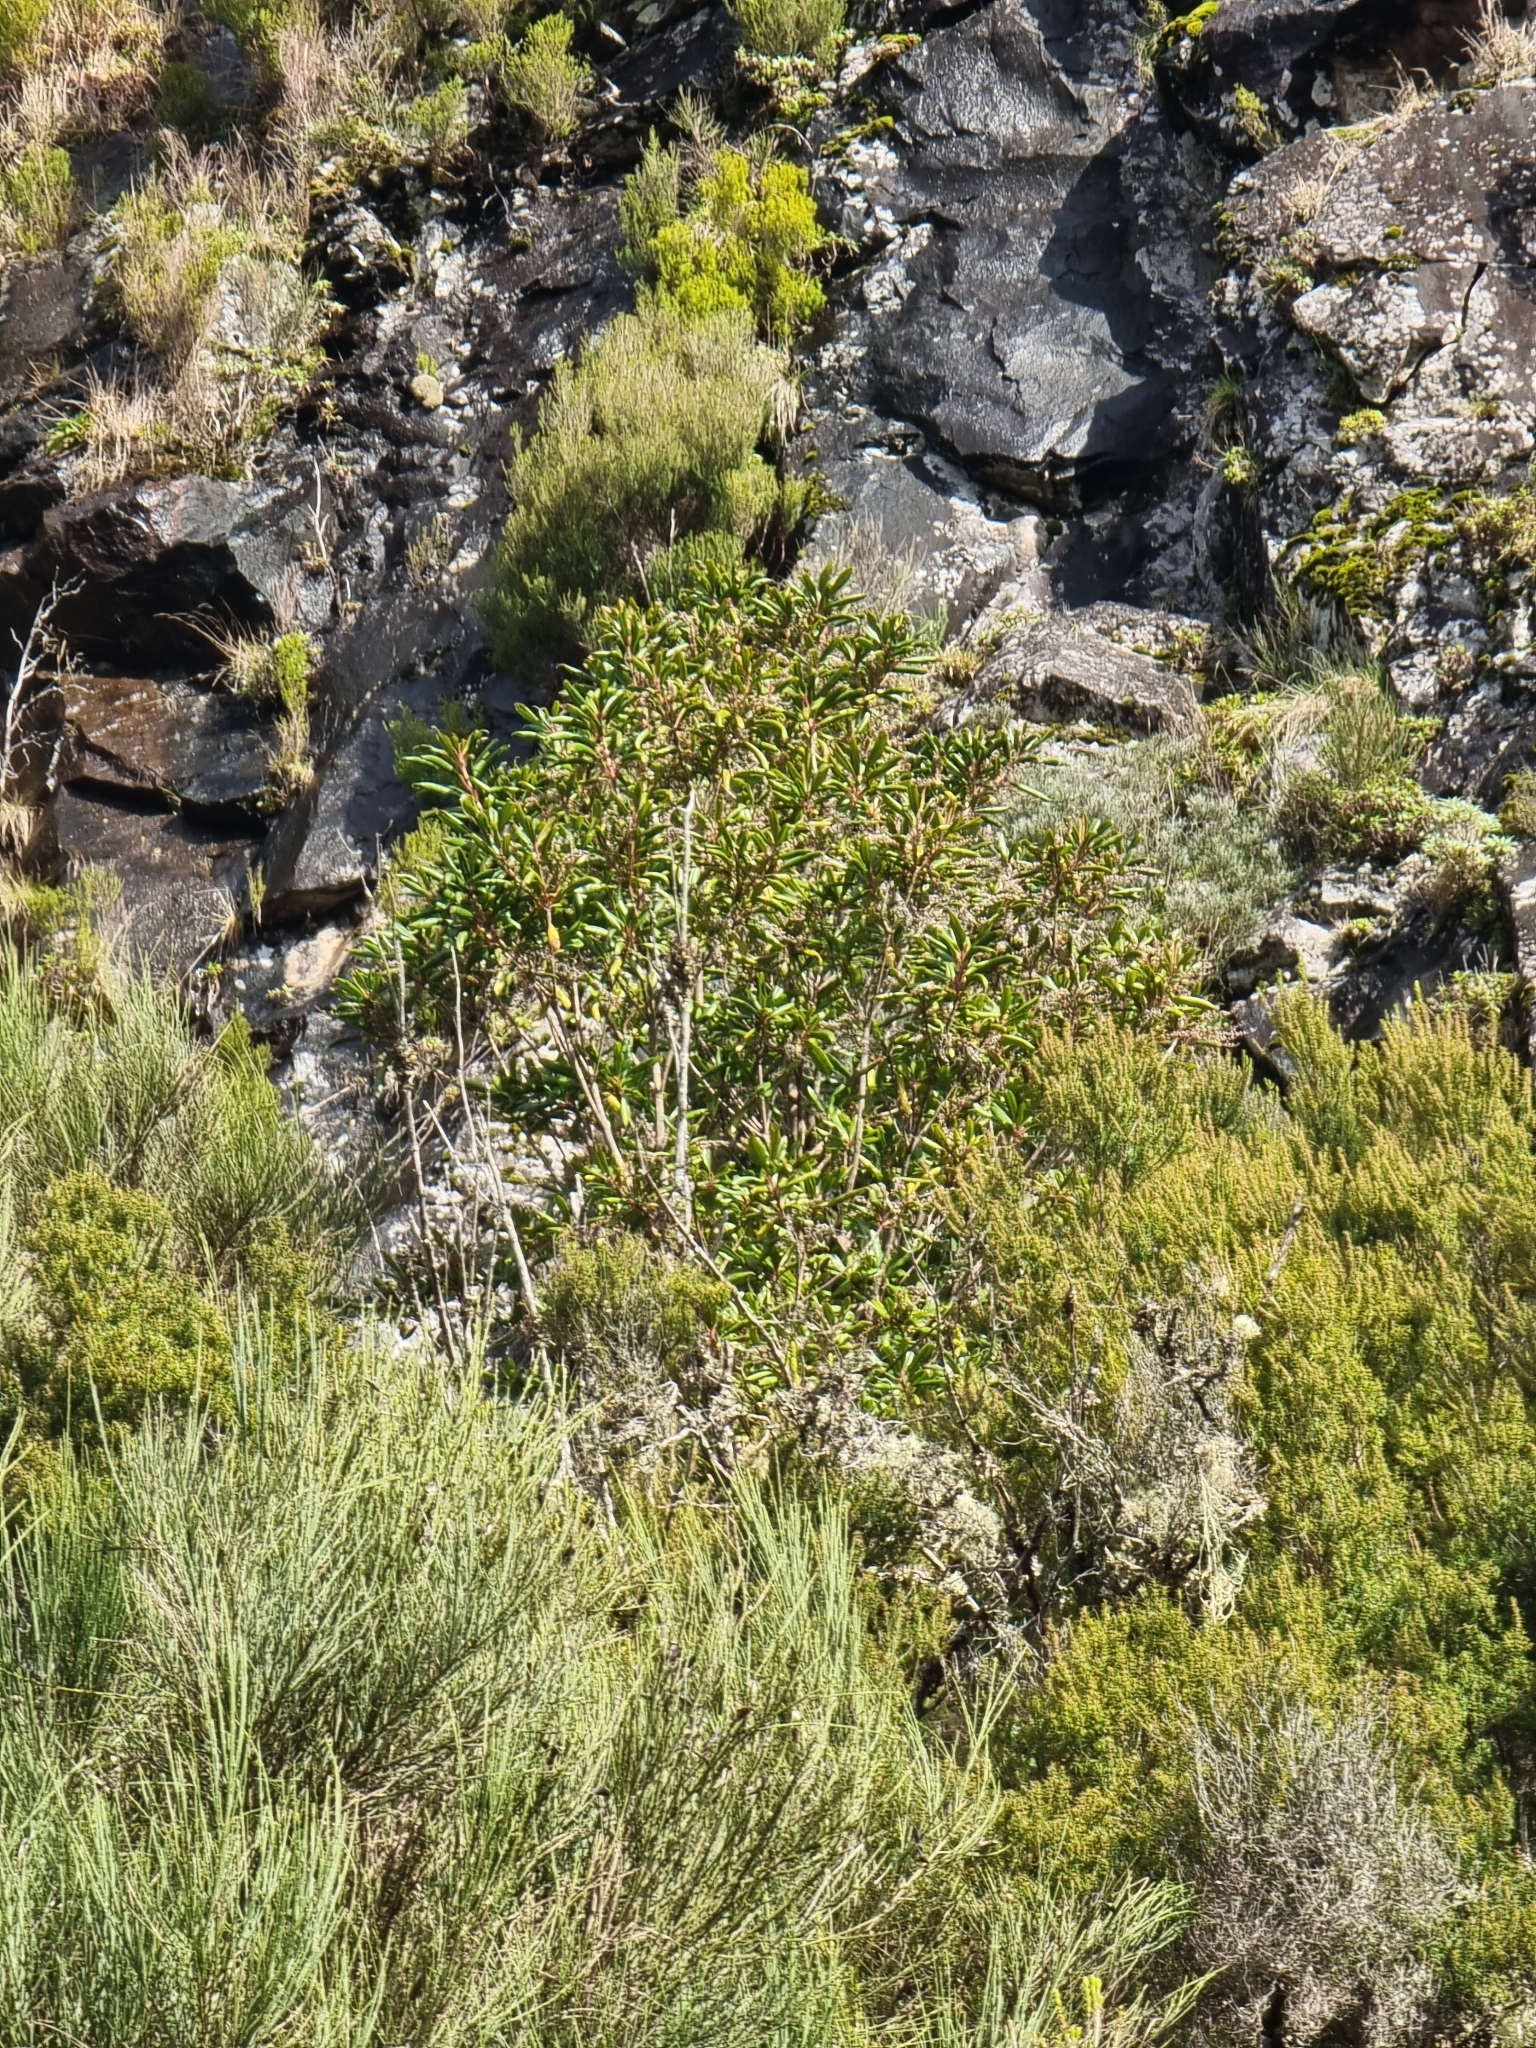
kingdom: Plantae
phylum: Tracheophyta
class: Magnoliopsida
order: Ericales
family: Clethraceae
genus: Clethra
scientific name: Clethra arborea
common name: Lily-of-the-valley-tree
